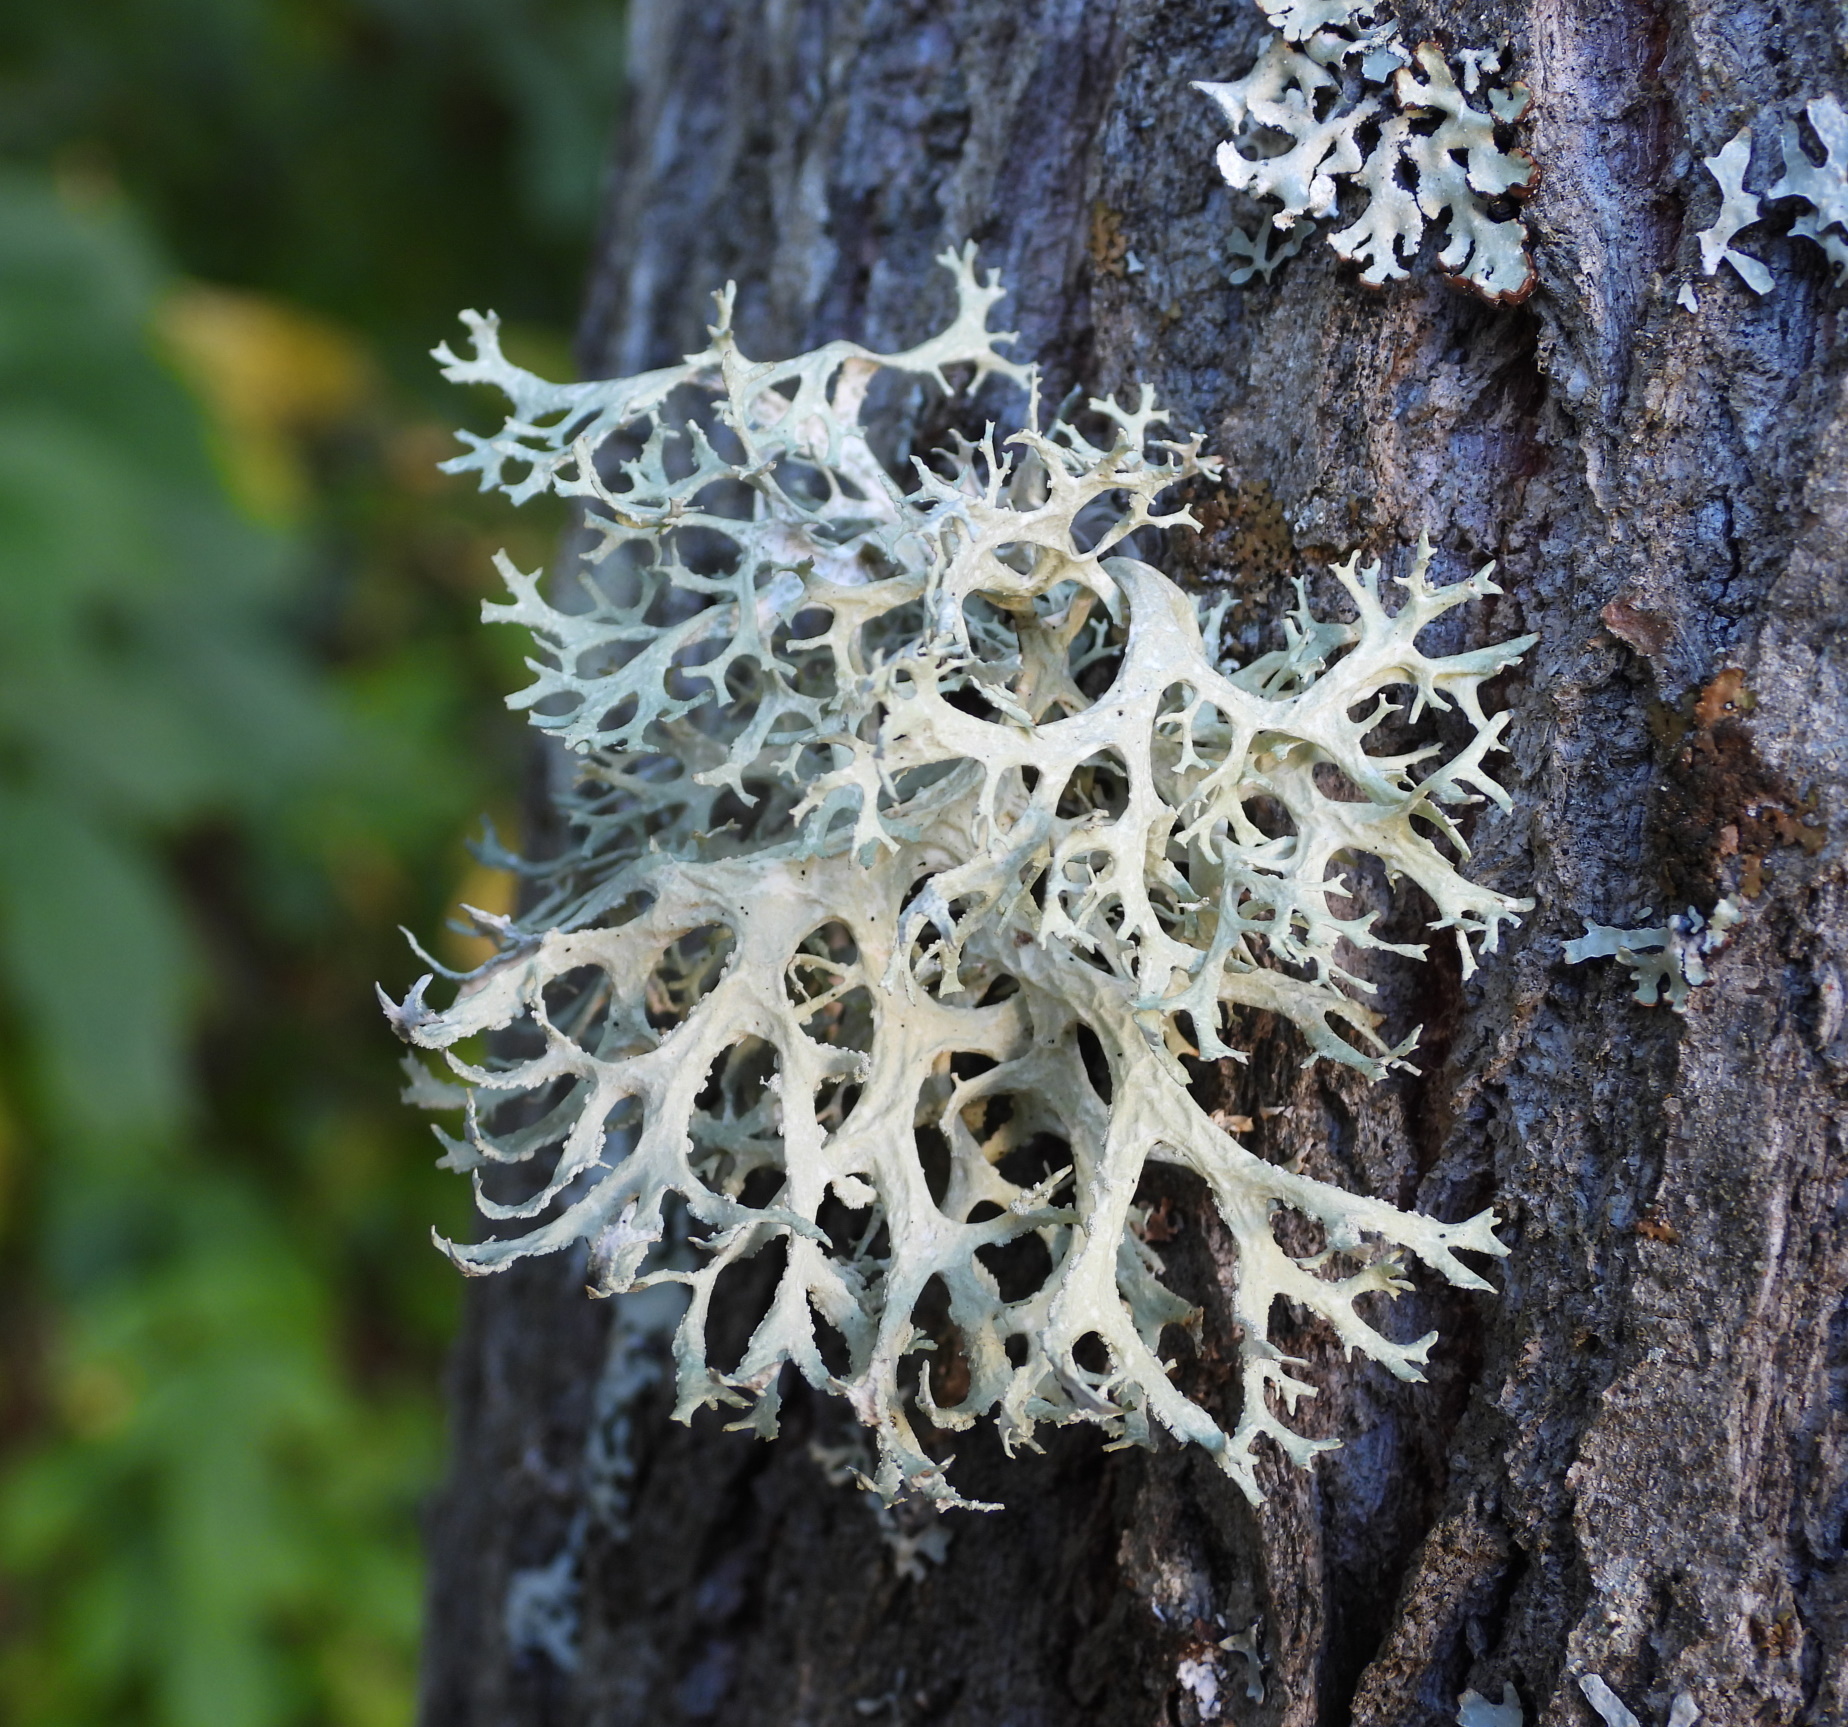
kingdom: Fungi
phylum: Ascomycota
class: Lecanoromycetes
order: Lecanorales
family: Parmeliaceae
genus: Evernia
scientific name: Evernia prunastri
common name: Oak moss
